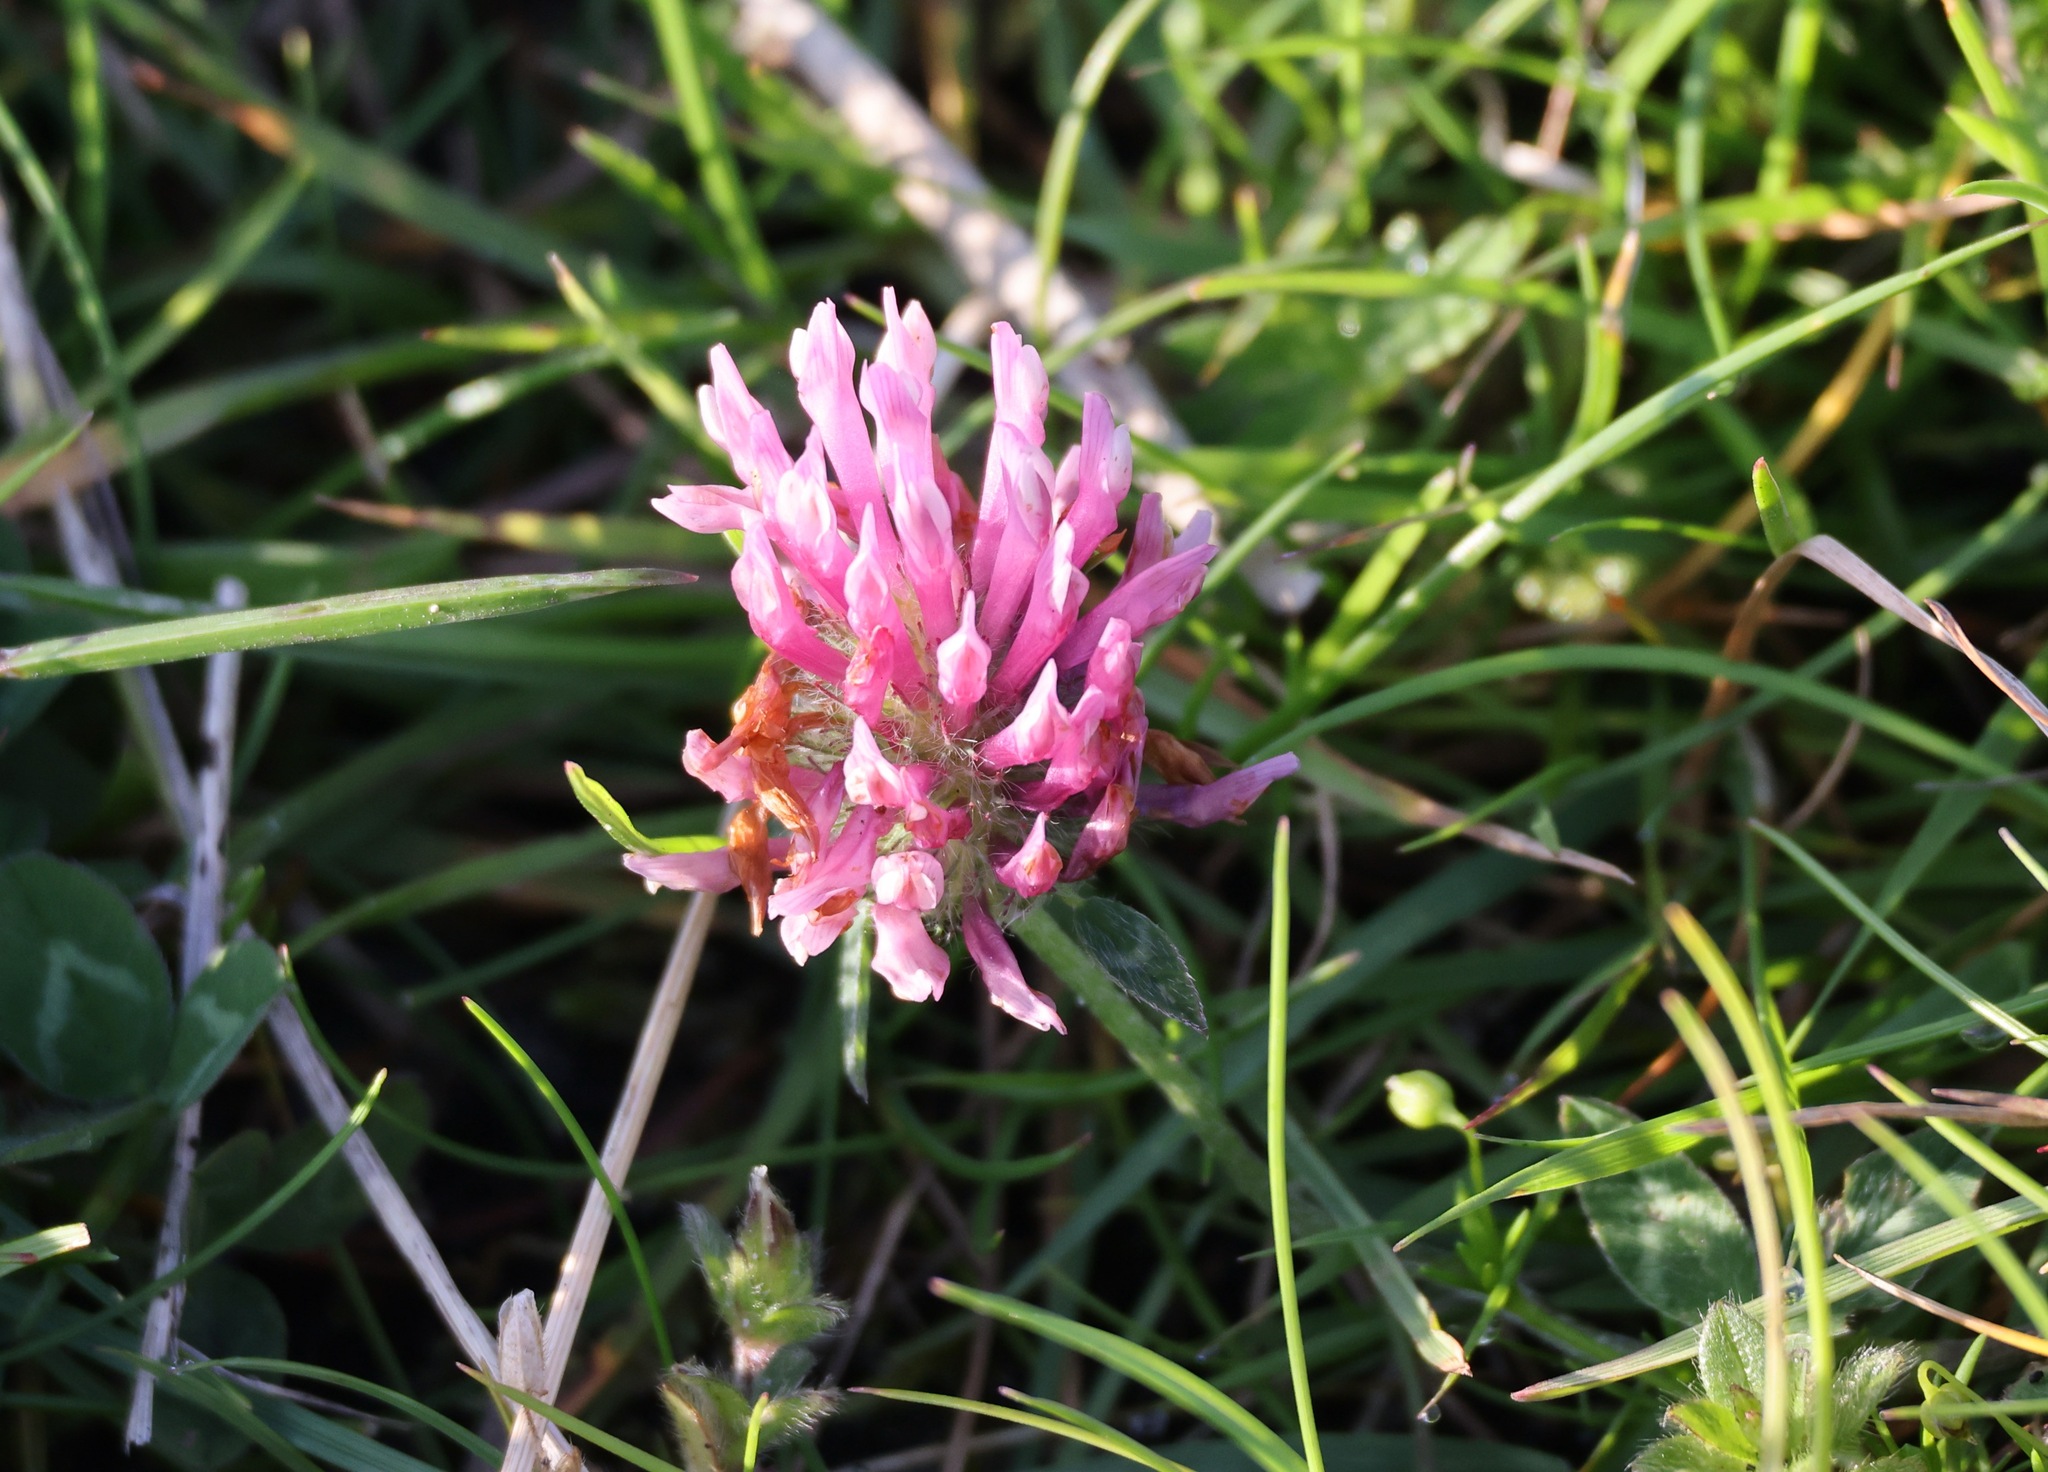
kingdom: Plantae
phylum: Tracheophyta
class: Magnoliopsida
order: Fabales
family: Fabaceae
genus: Trifolium
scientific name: Trifolium pratense
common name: Red clover
